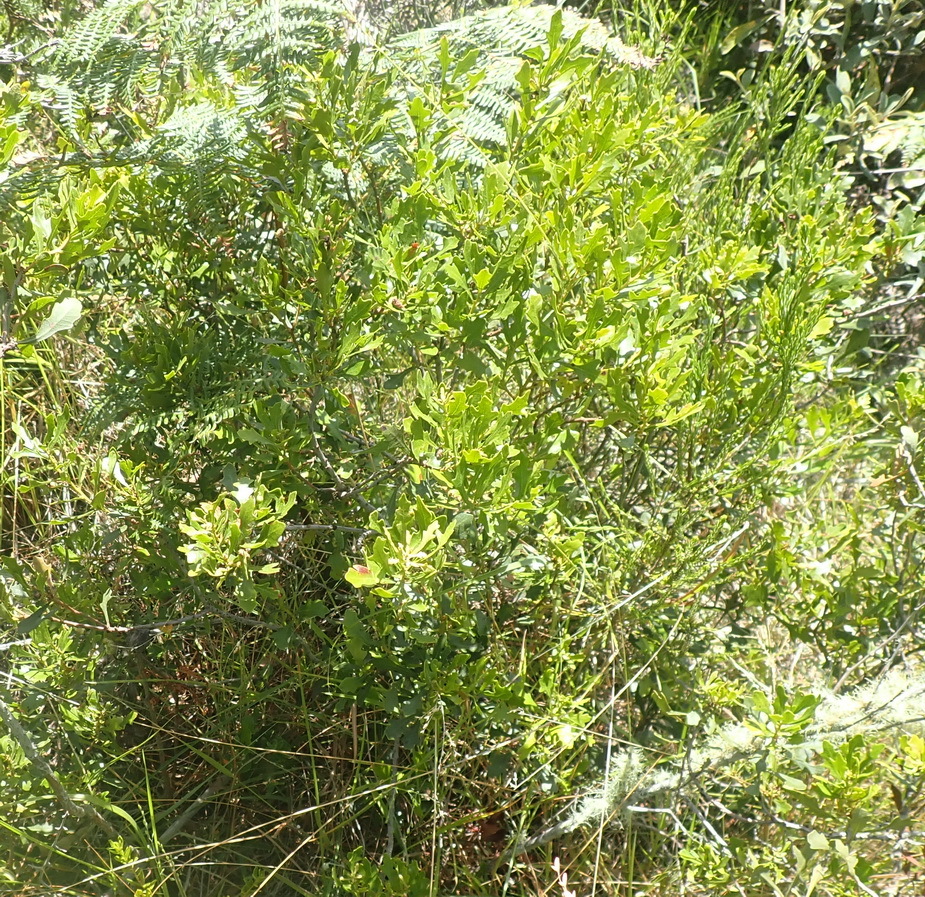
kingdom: Plantae
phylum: Tracheophyta
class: Magnoliopsida
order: Fagales
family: Myricaceae
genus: Morella
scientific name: Morella quercifolia
